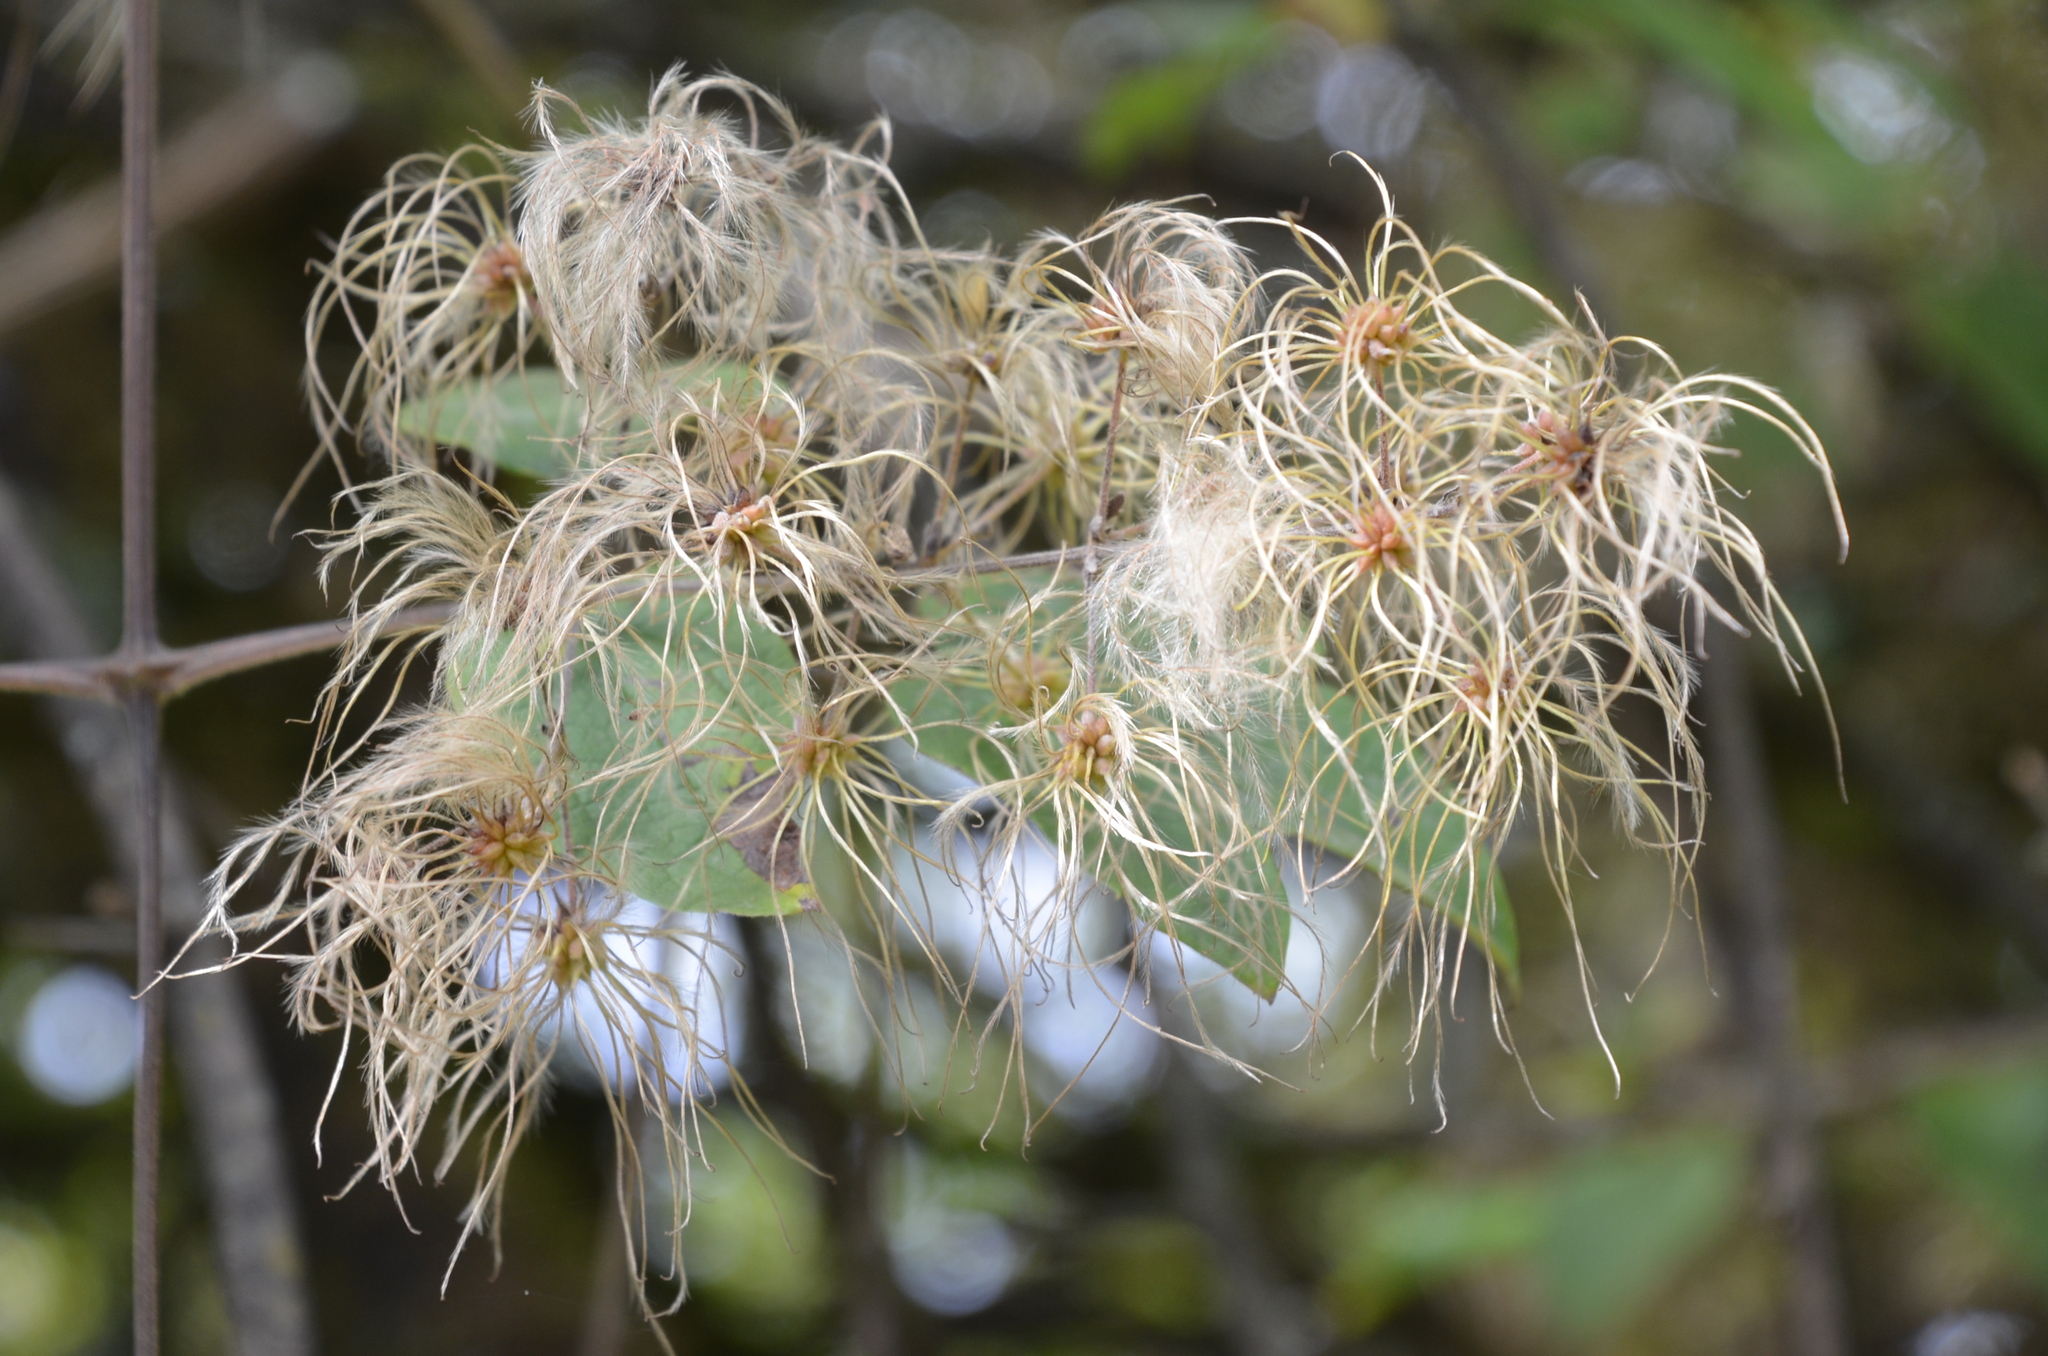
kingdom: Plantae
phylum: Tracheophyta
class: Magnoliopsida
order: Ranunculales
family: Ranunculaceae
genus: Clematis
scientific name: Clematis haenkeana
